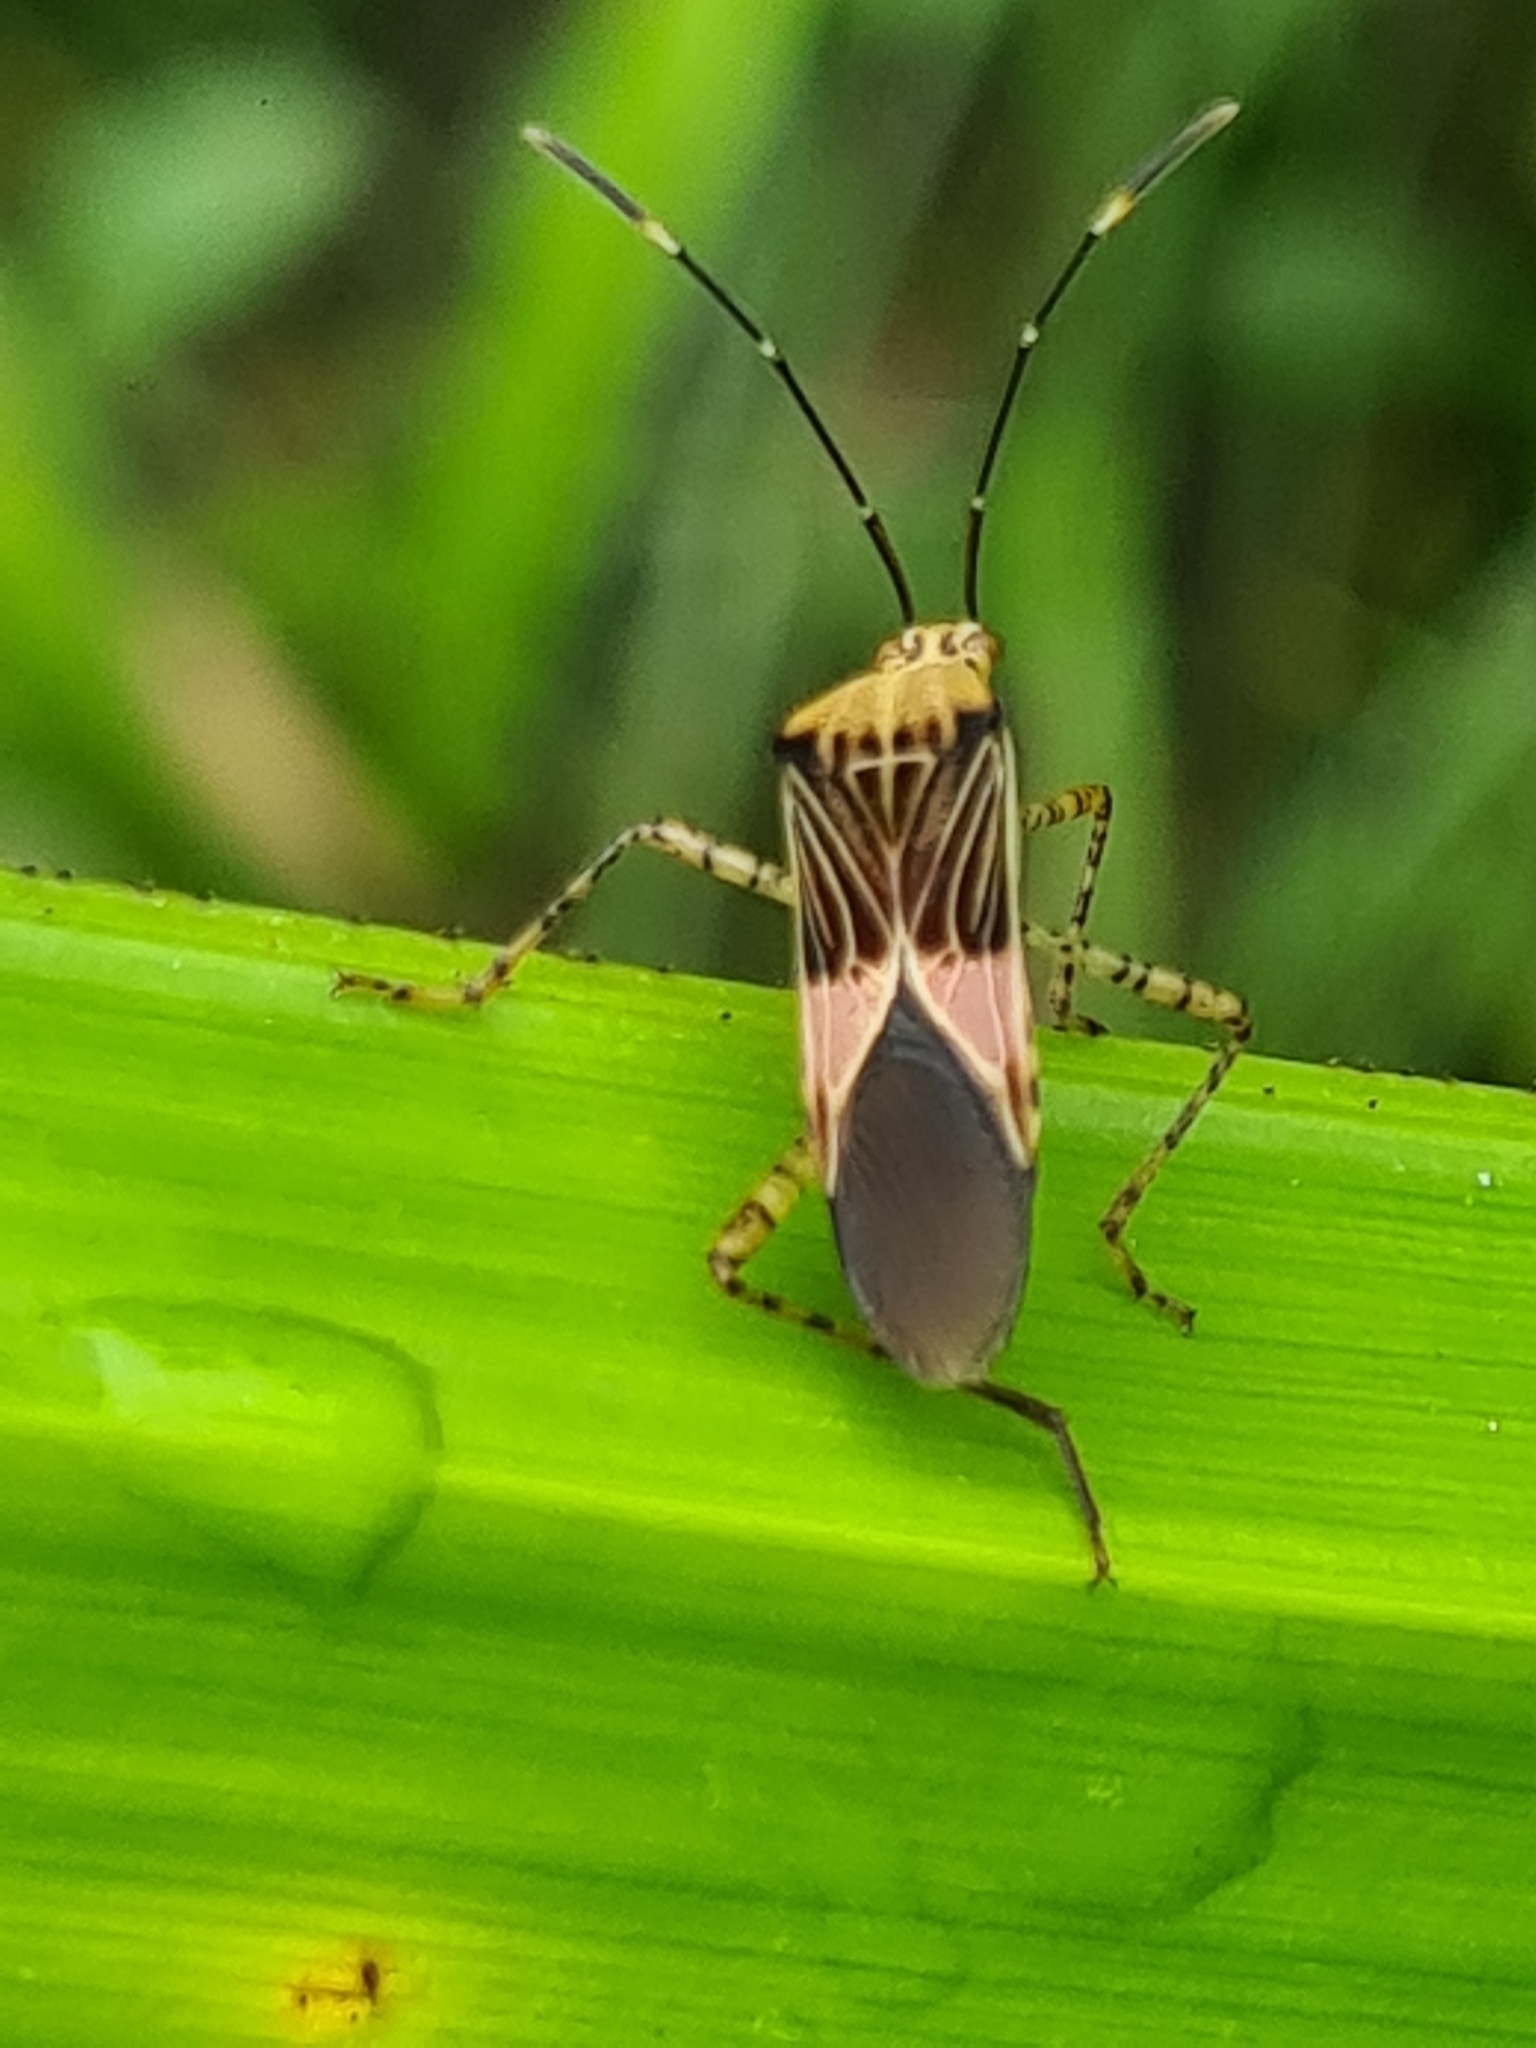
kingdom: Animalia
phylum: Arthropoda
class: Insecta
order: Hemiptera
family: Coreidae
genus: Hypselonotus
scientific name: Hypselonotus fulvus
